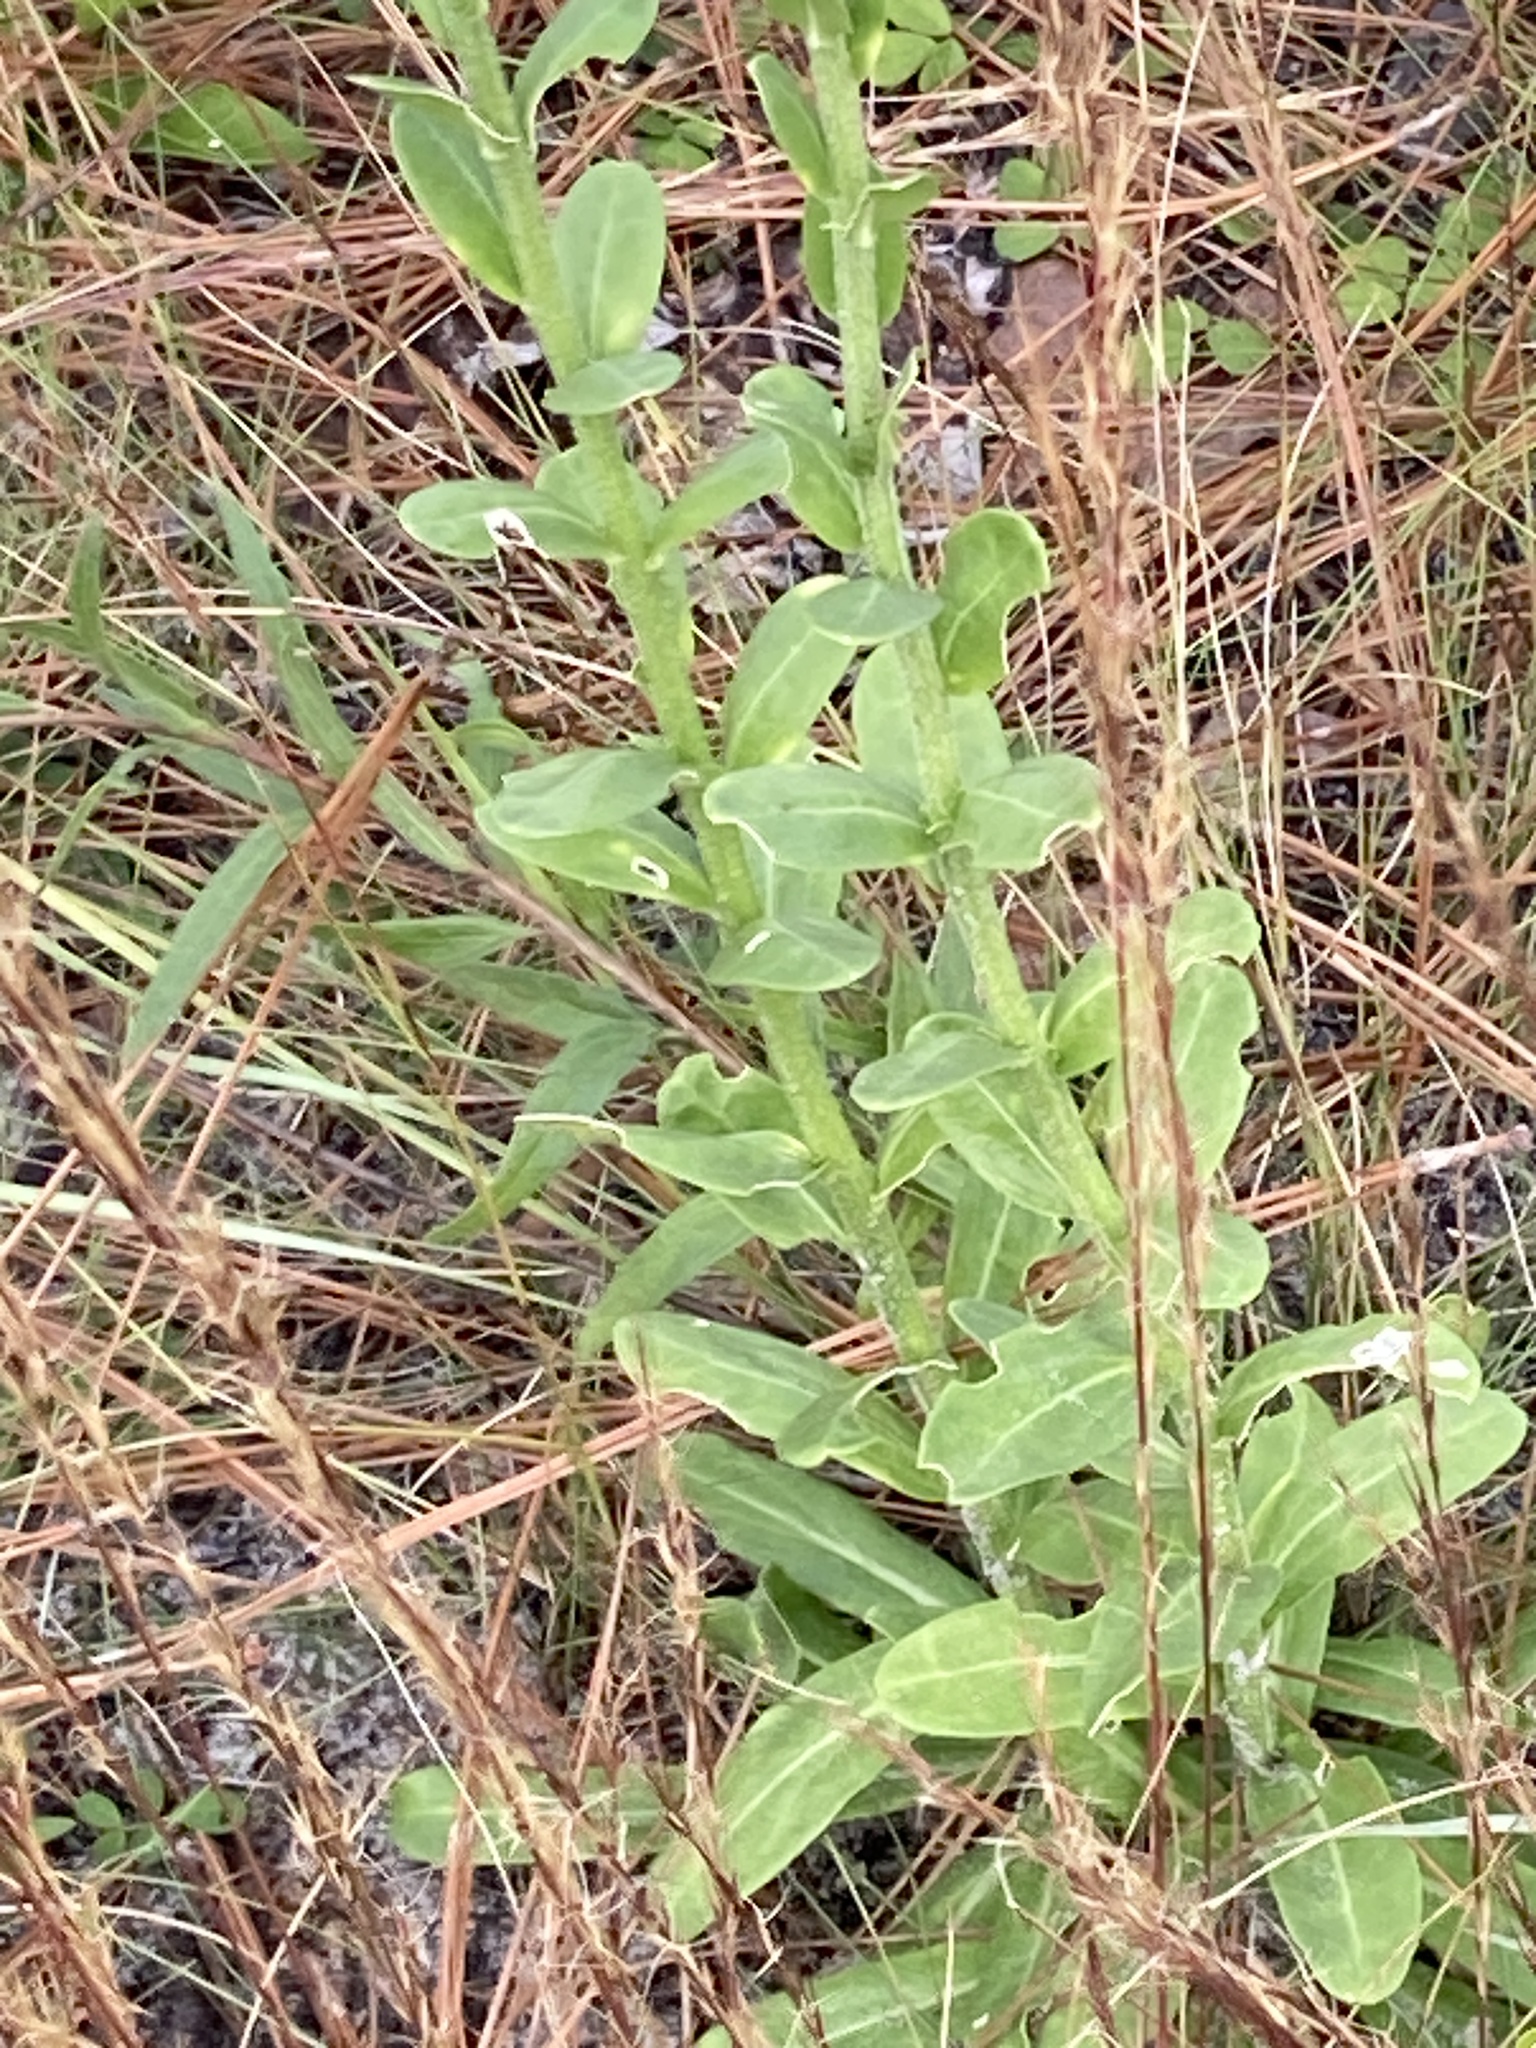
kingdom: Plantae
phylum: Tracheophyta
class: Magnoliopsida
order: Asterales
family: Asteraceae
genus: Carphephorus
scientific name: Carphephorus corymbosus
